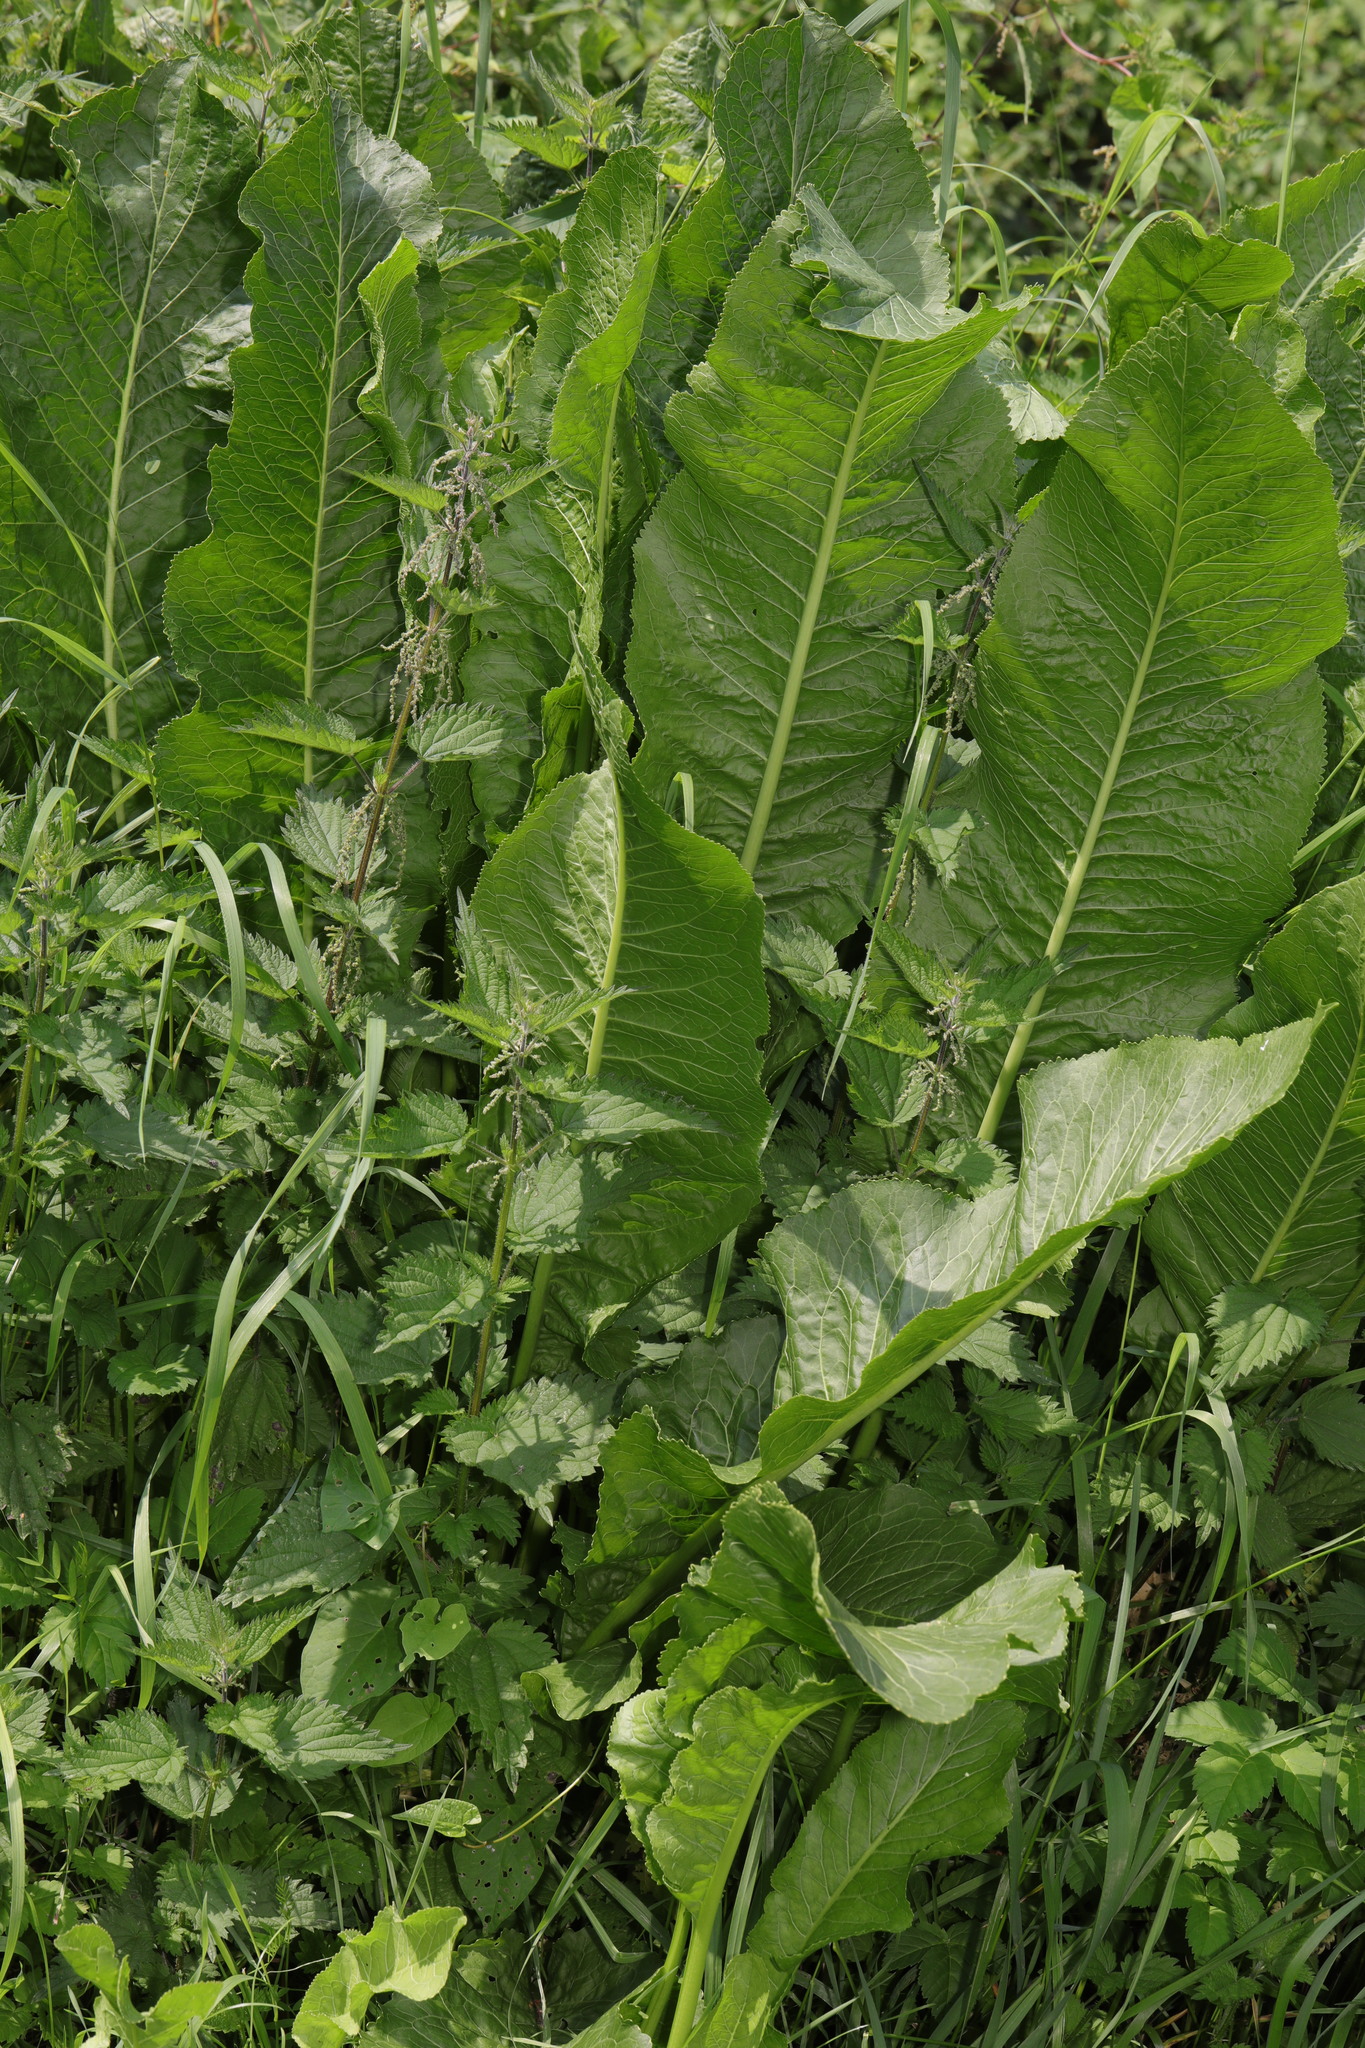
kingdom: Plantae
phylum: Tracheophyta
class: Magnoliopsida
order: Brassicales
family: Brassicaceae
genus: Armoracia
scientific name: Armoracia rusticana
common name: Horseradish
